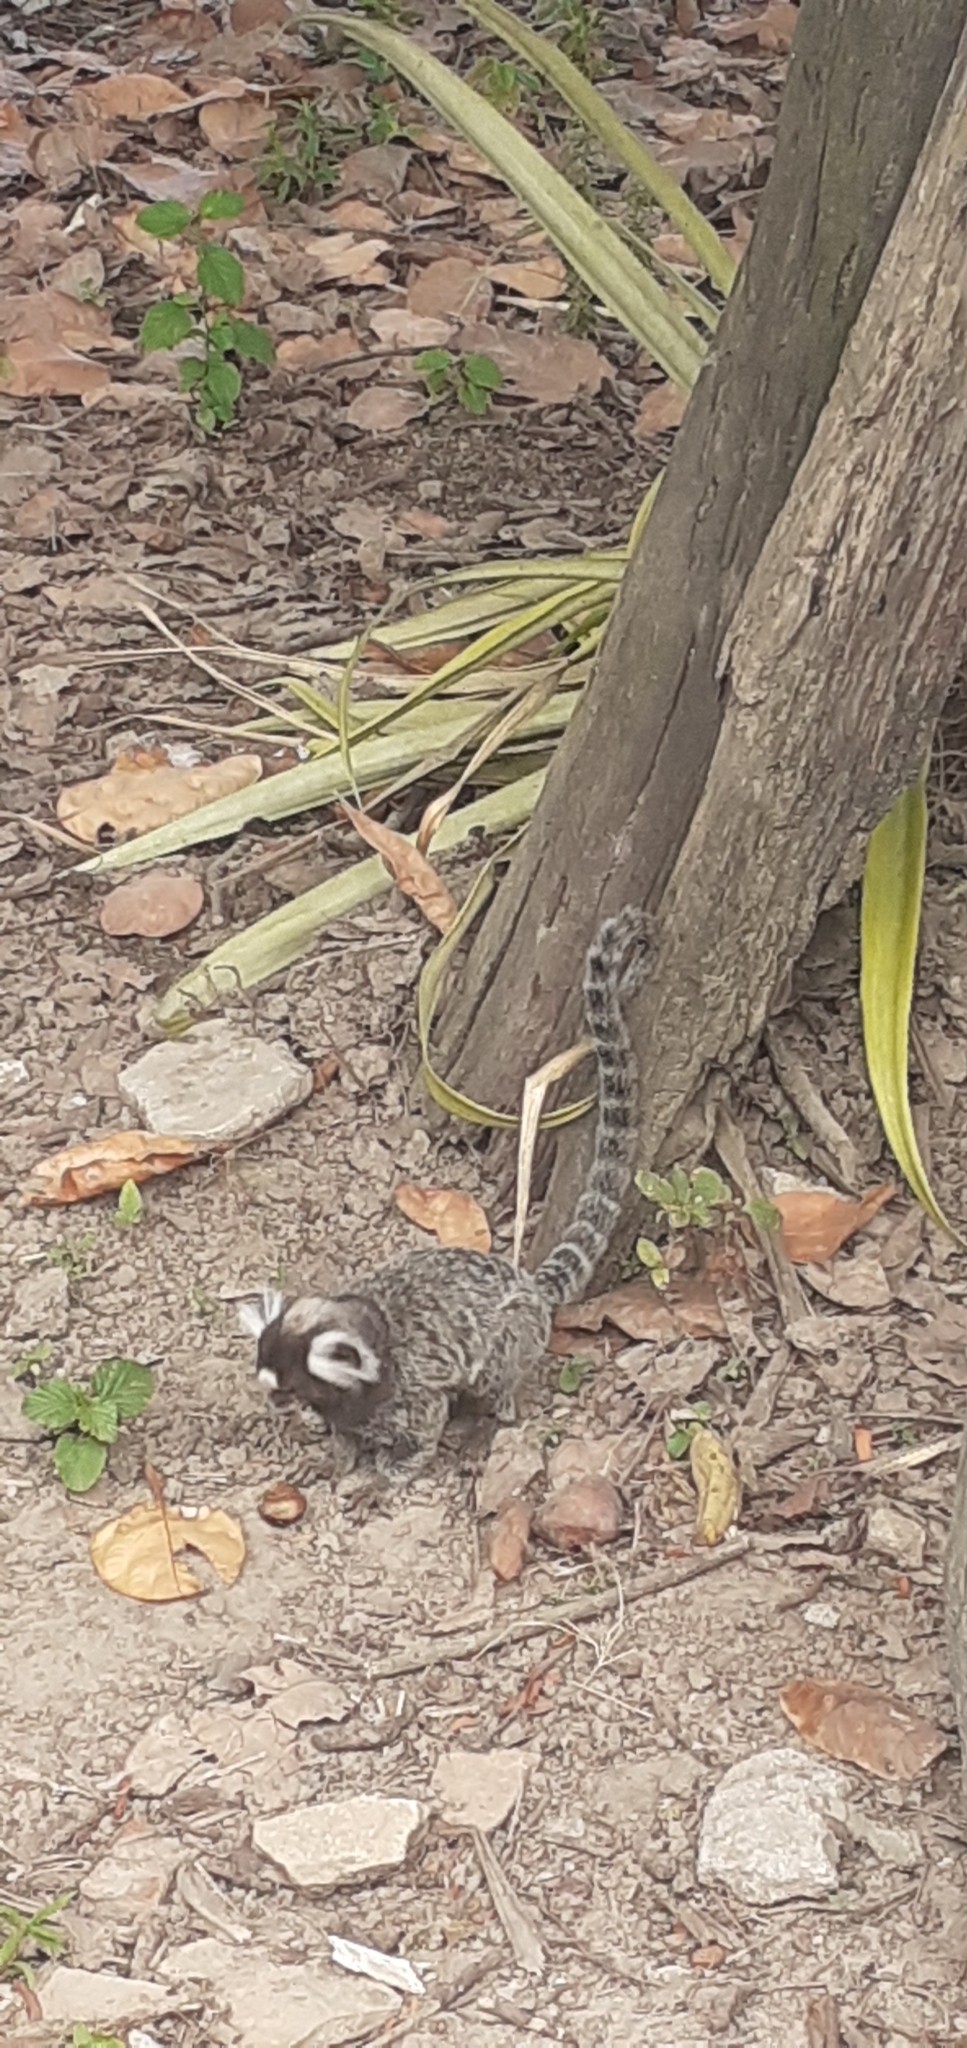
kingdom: Animalia
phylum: Chordata
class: Mammalia
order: Primates
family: Callitrichidae
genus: Callithrix
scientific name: Callithrix jacchus
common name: Common marmoset
